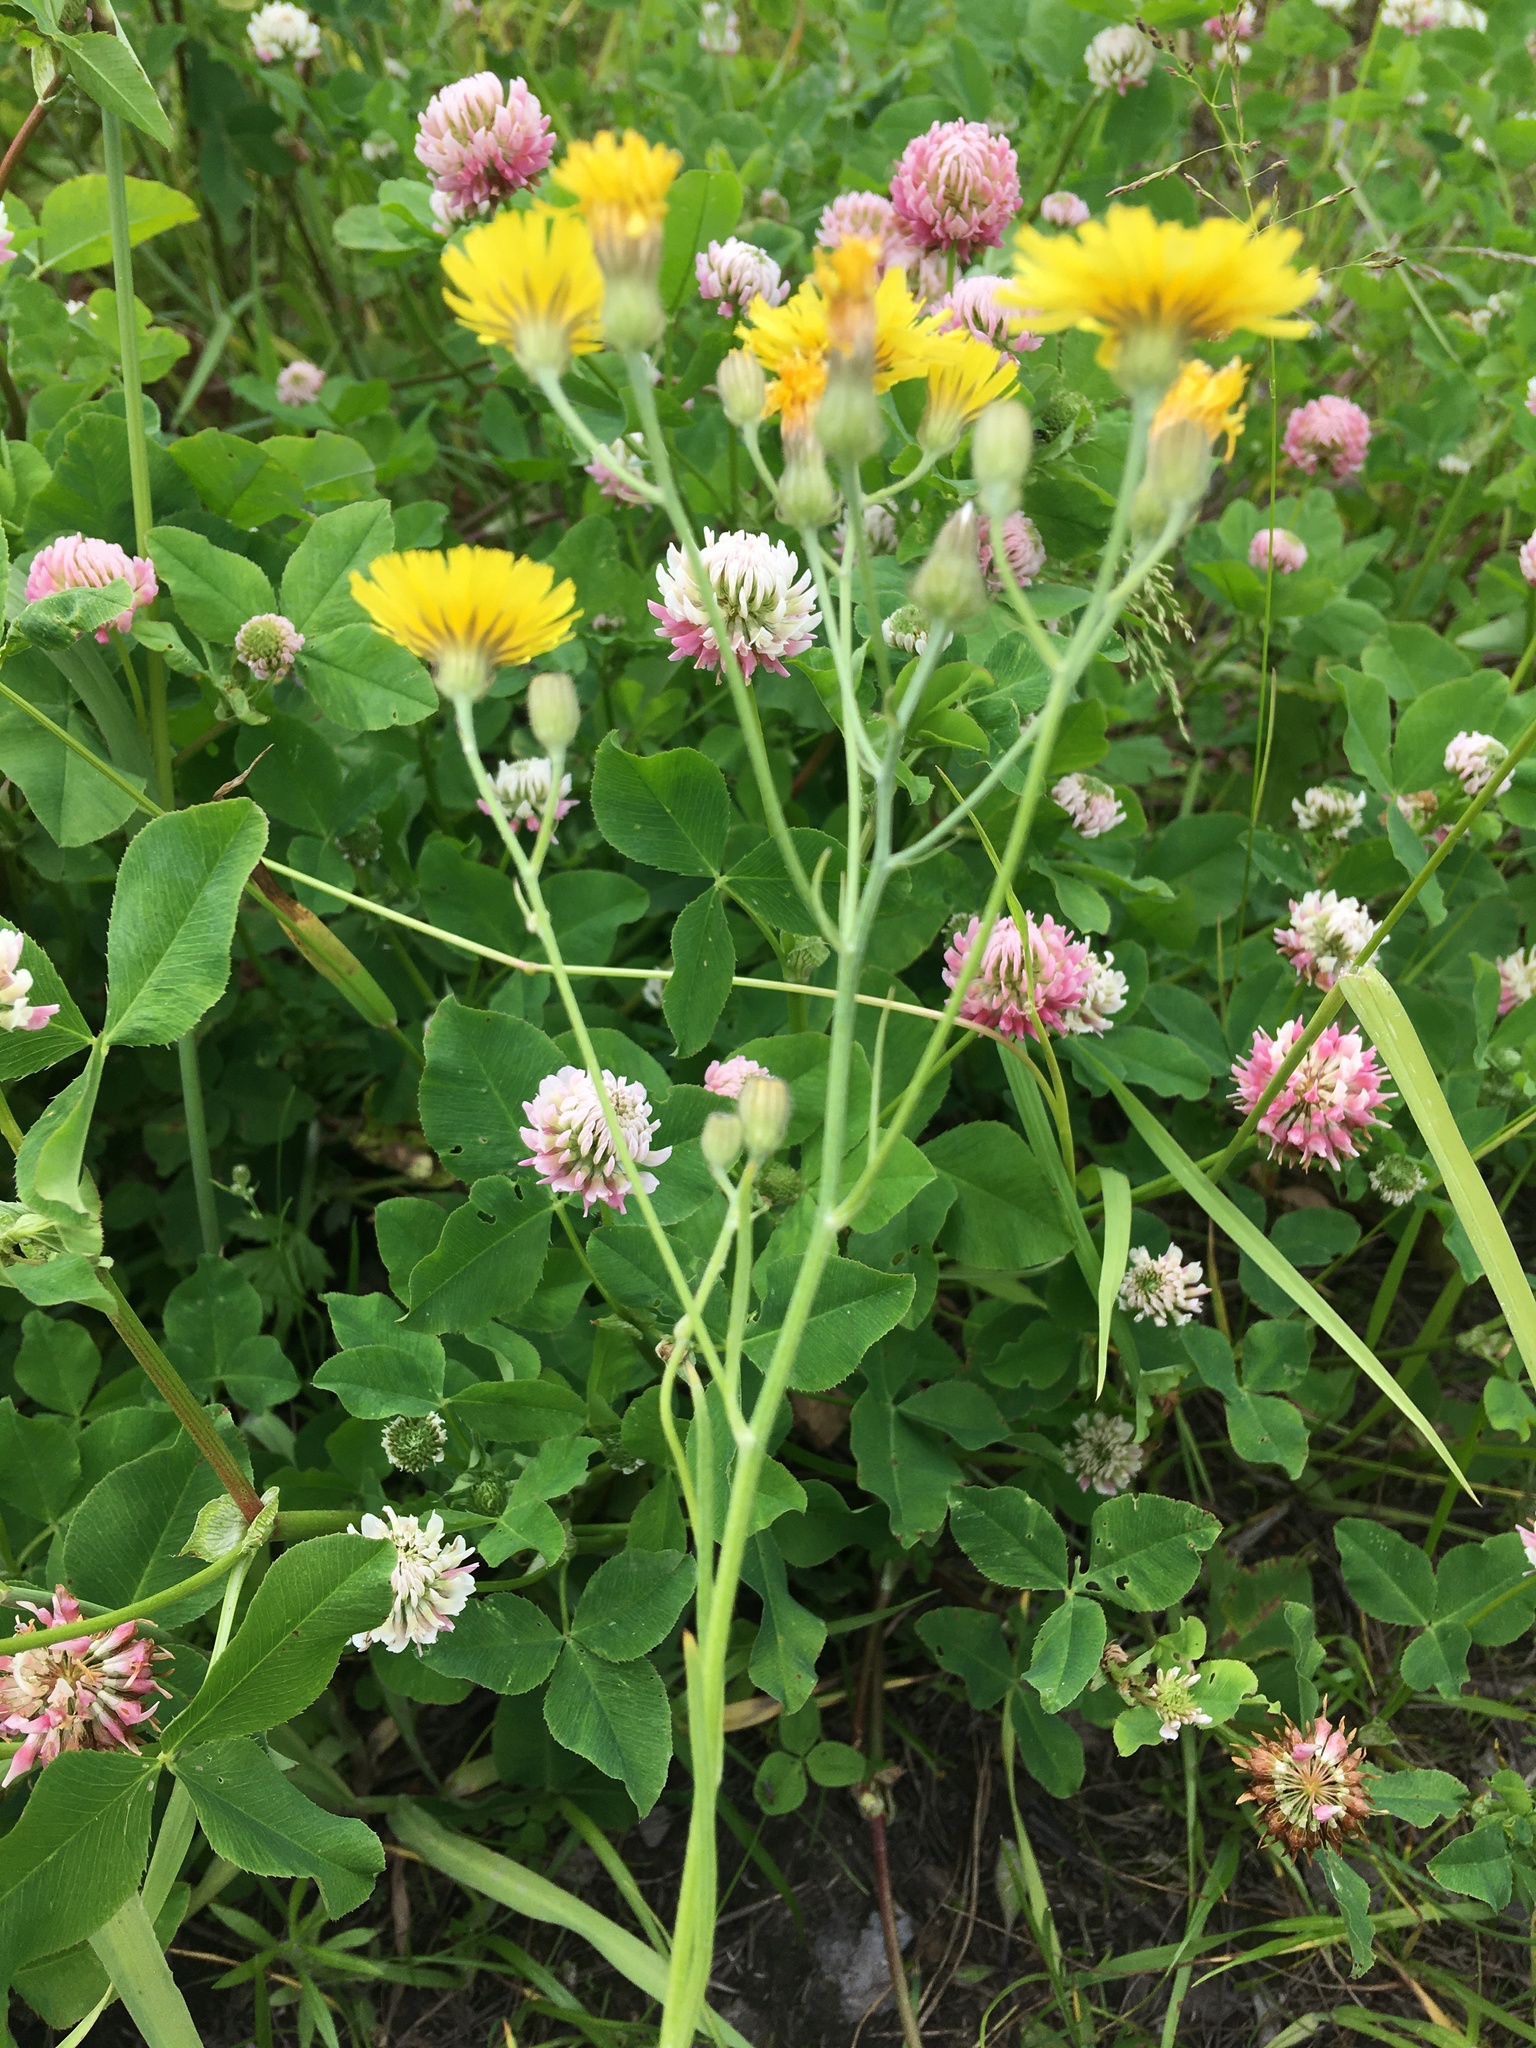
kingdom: Plantae
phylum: Tracheophyta
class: Magnoliopsida
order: Asterales
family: Asteraceae
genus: Crepis
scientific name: Crepis tectorum
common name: Narrow-leaved hawk's-beard
